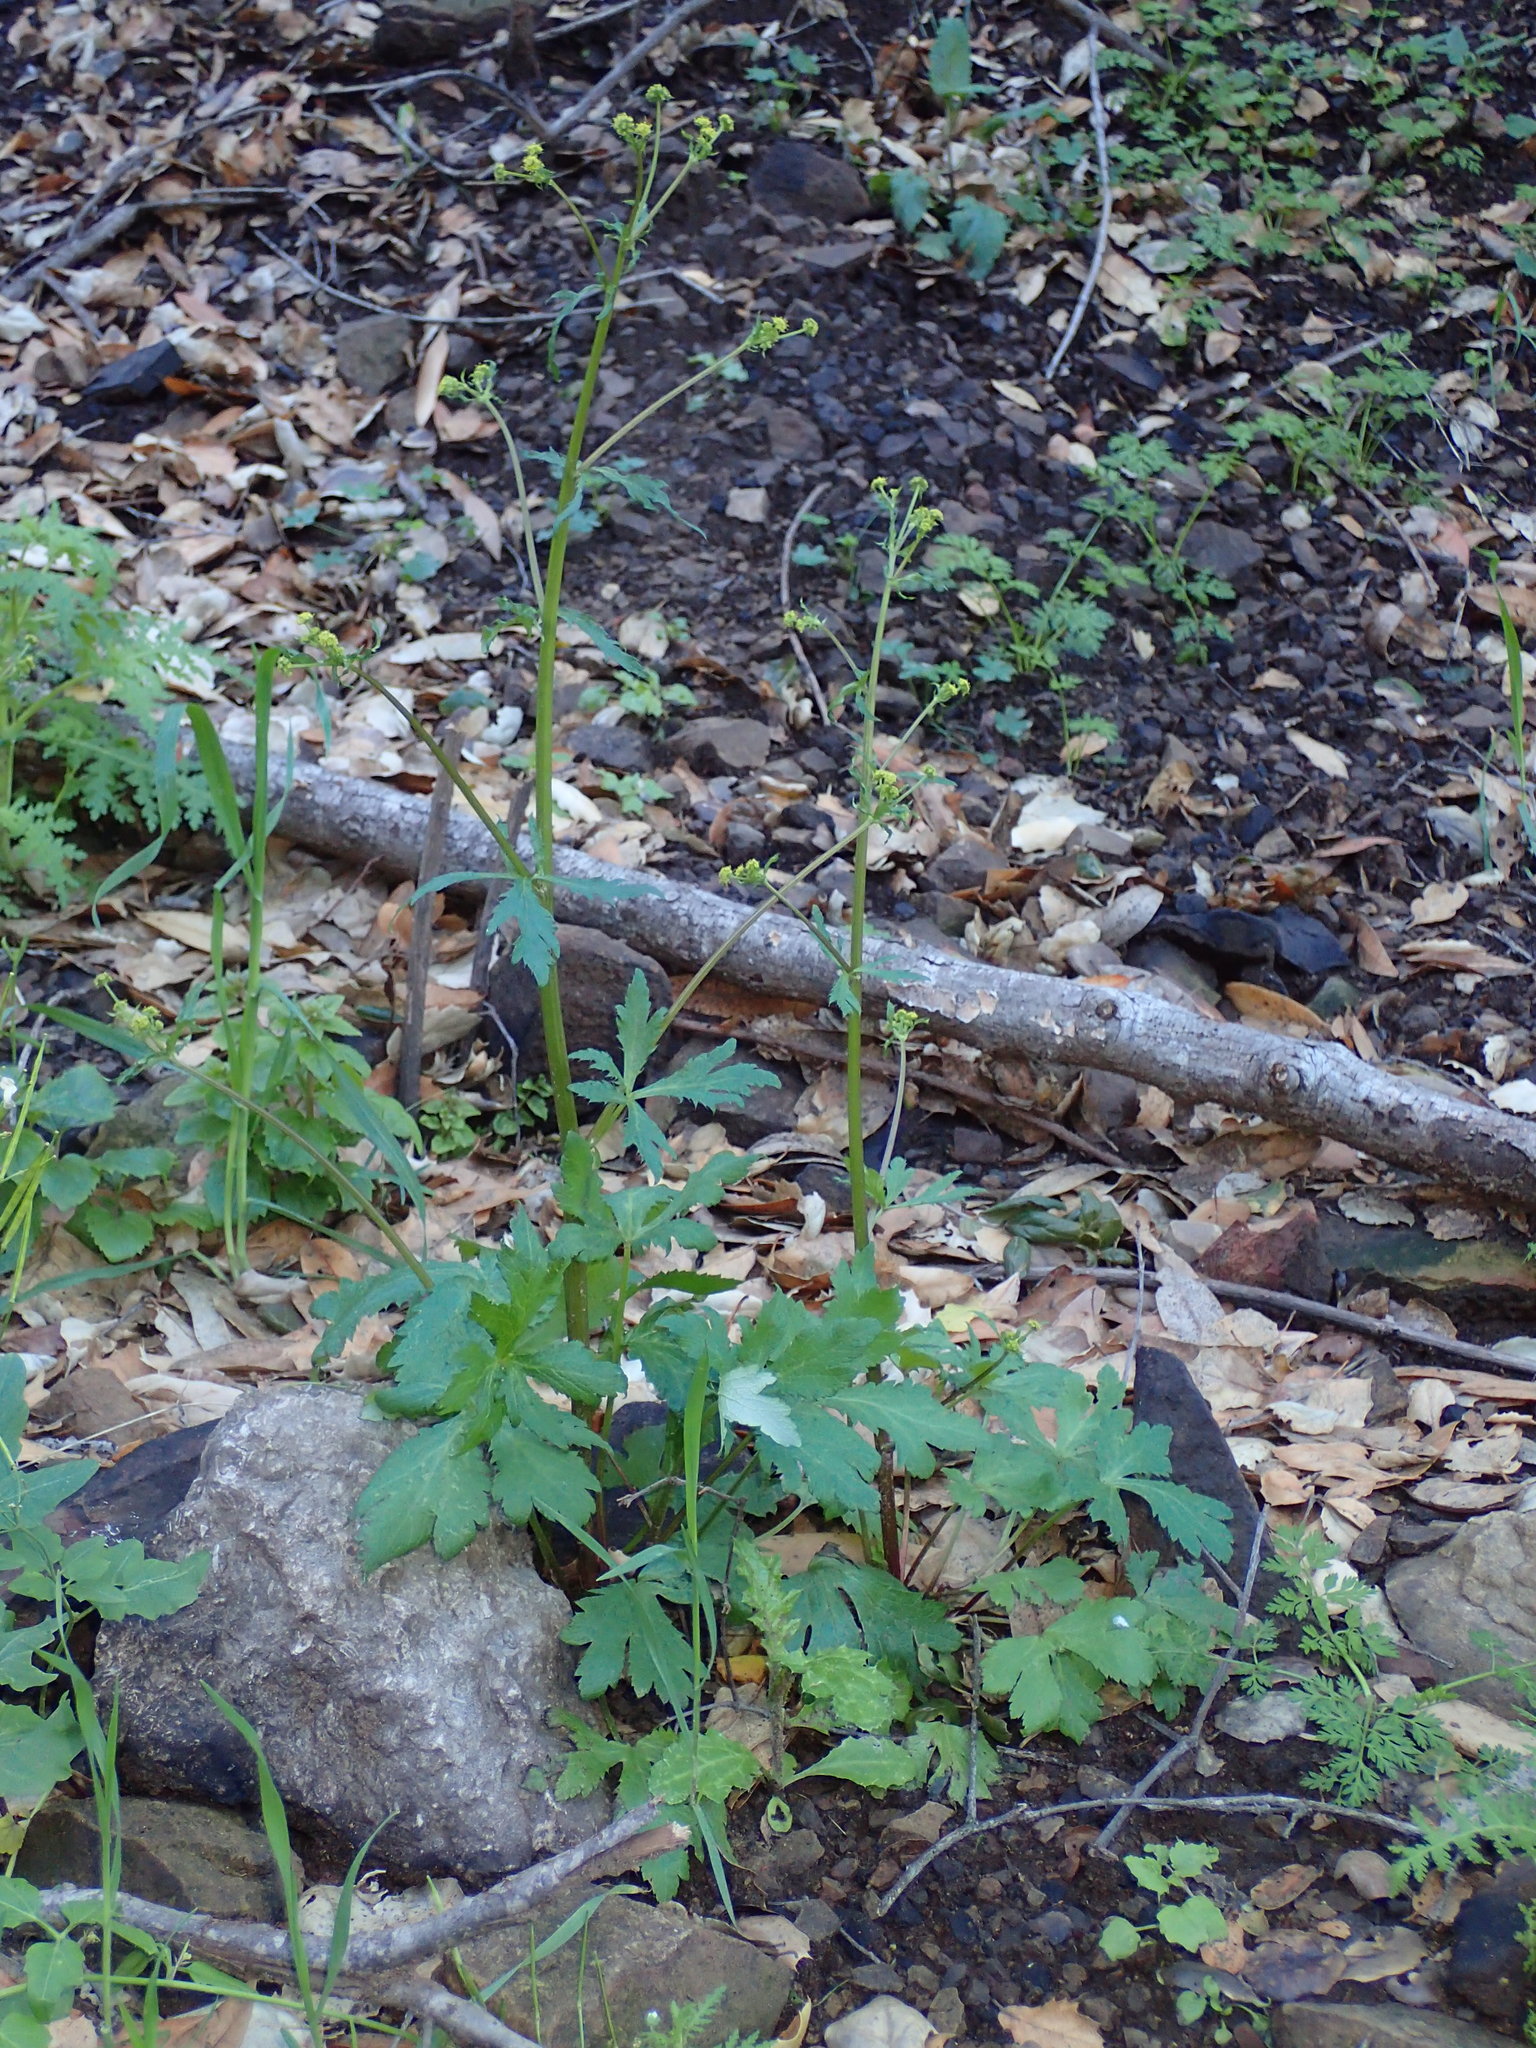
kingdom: Plantae
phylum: Tracheophyta
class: Magnoliopsida
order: Apiales
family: Apiaceae
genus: Sanicula
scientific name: Sanicula crassicaulis
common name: Western snakeroot
